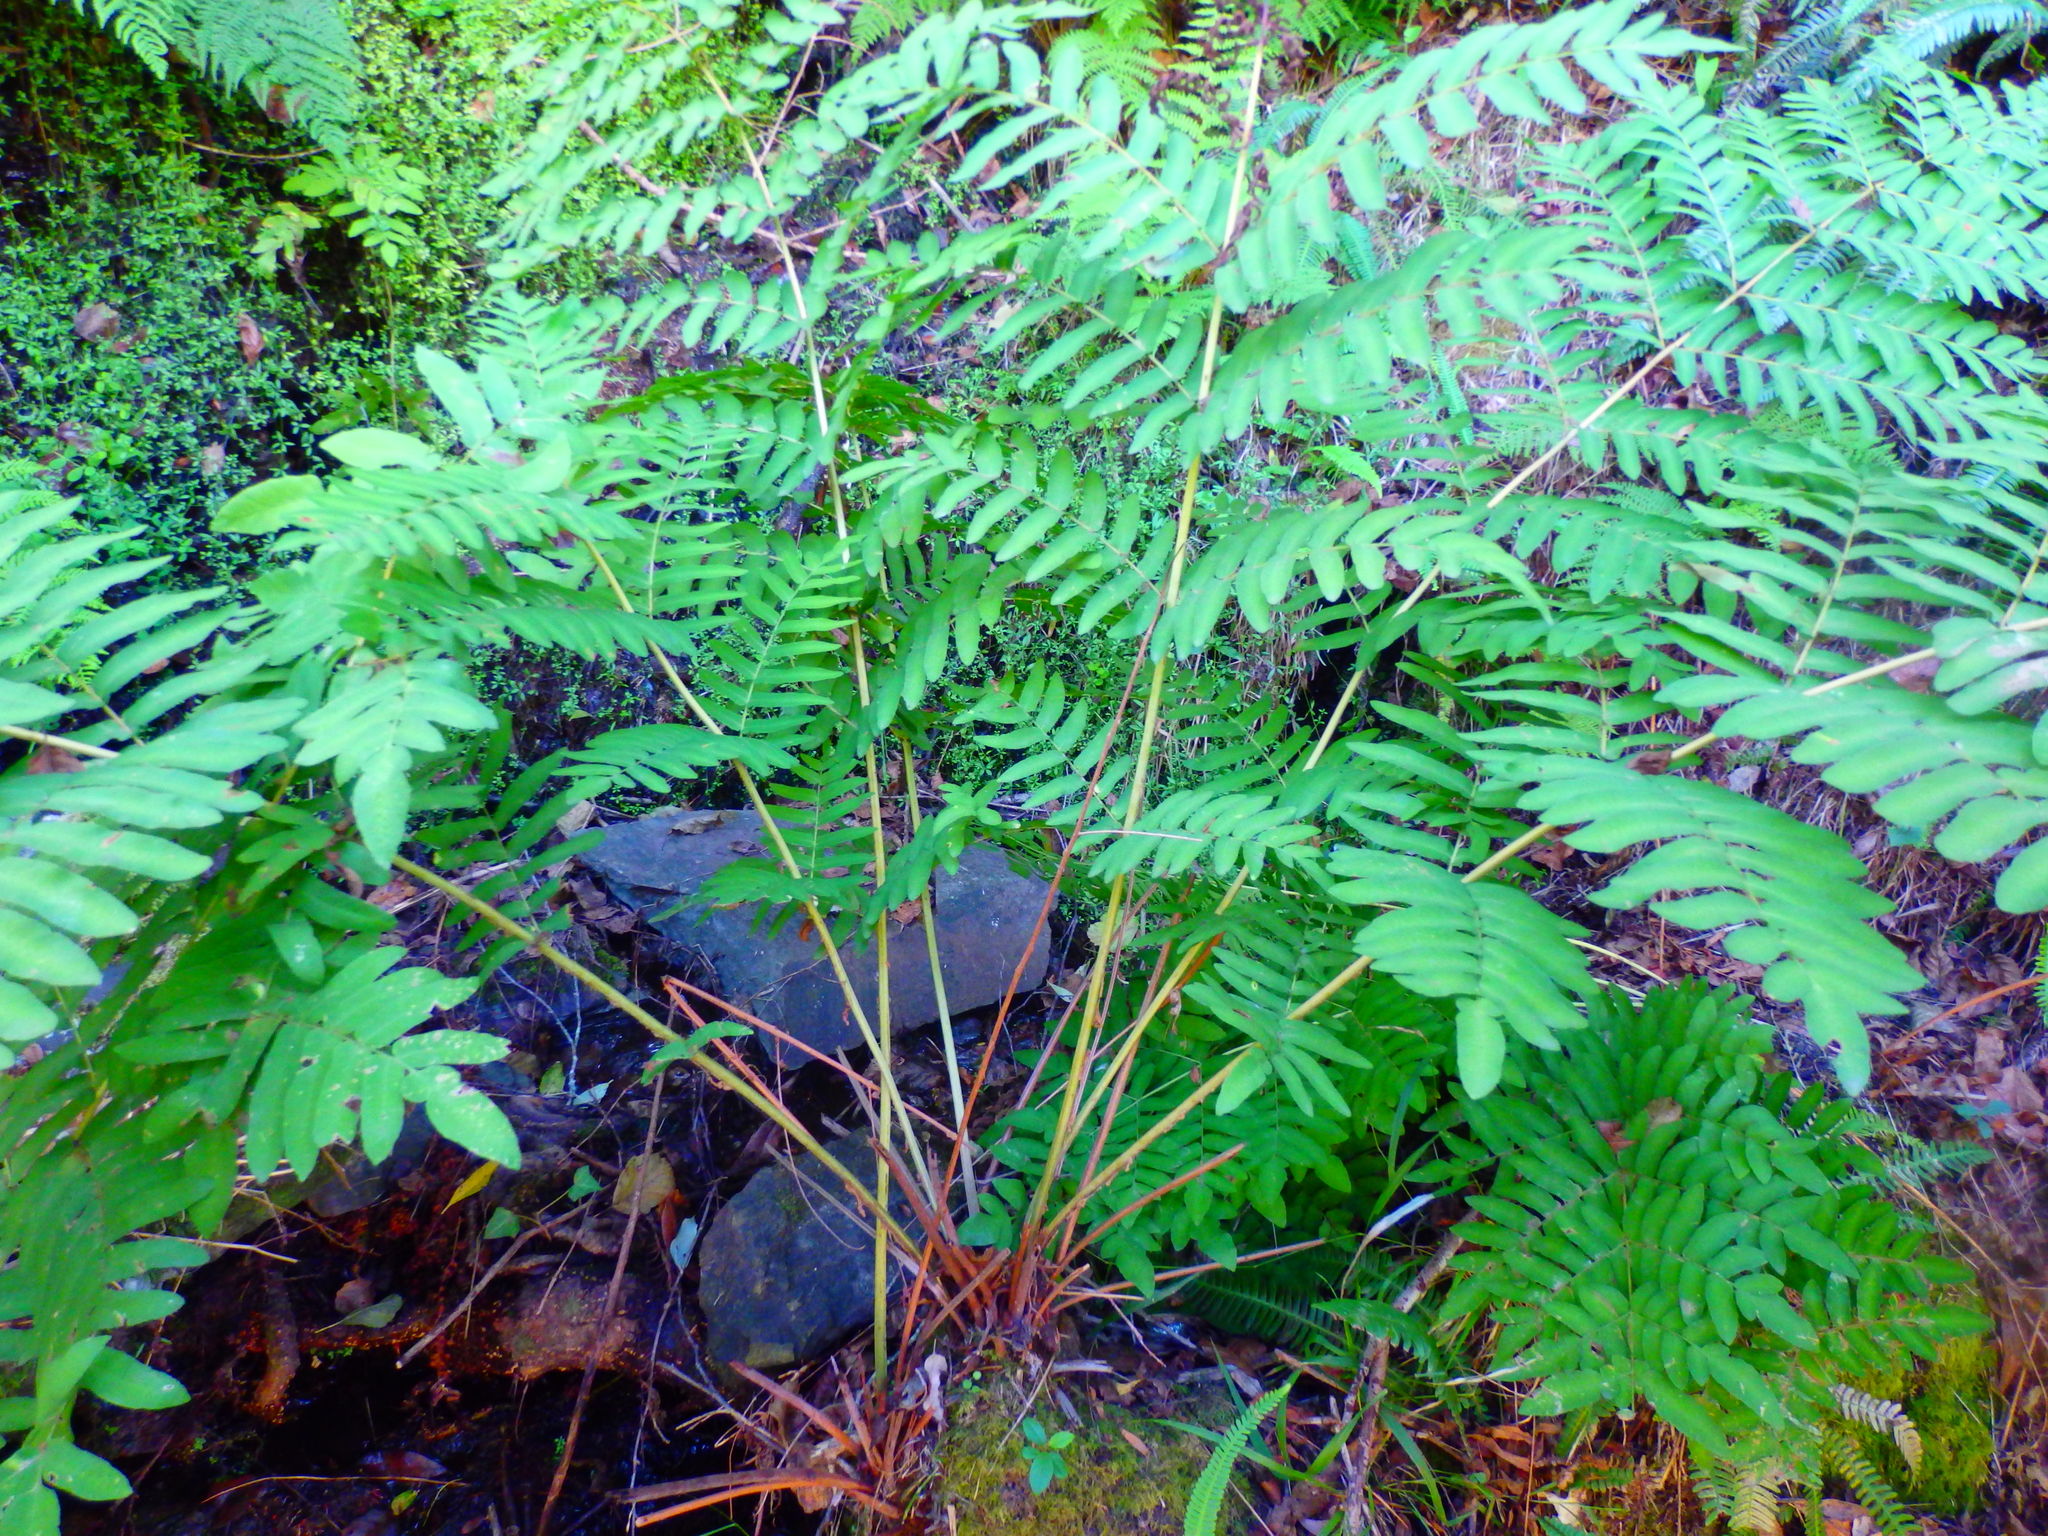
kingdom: Plantae
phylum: Tracheophyta
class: Polypodiopsida
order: Osmundales
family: Osmundaceae
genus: Osmunda
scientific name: Osmunda regalis
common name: Royal fern
